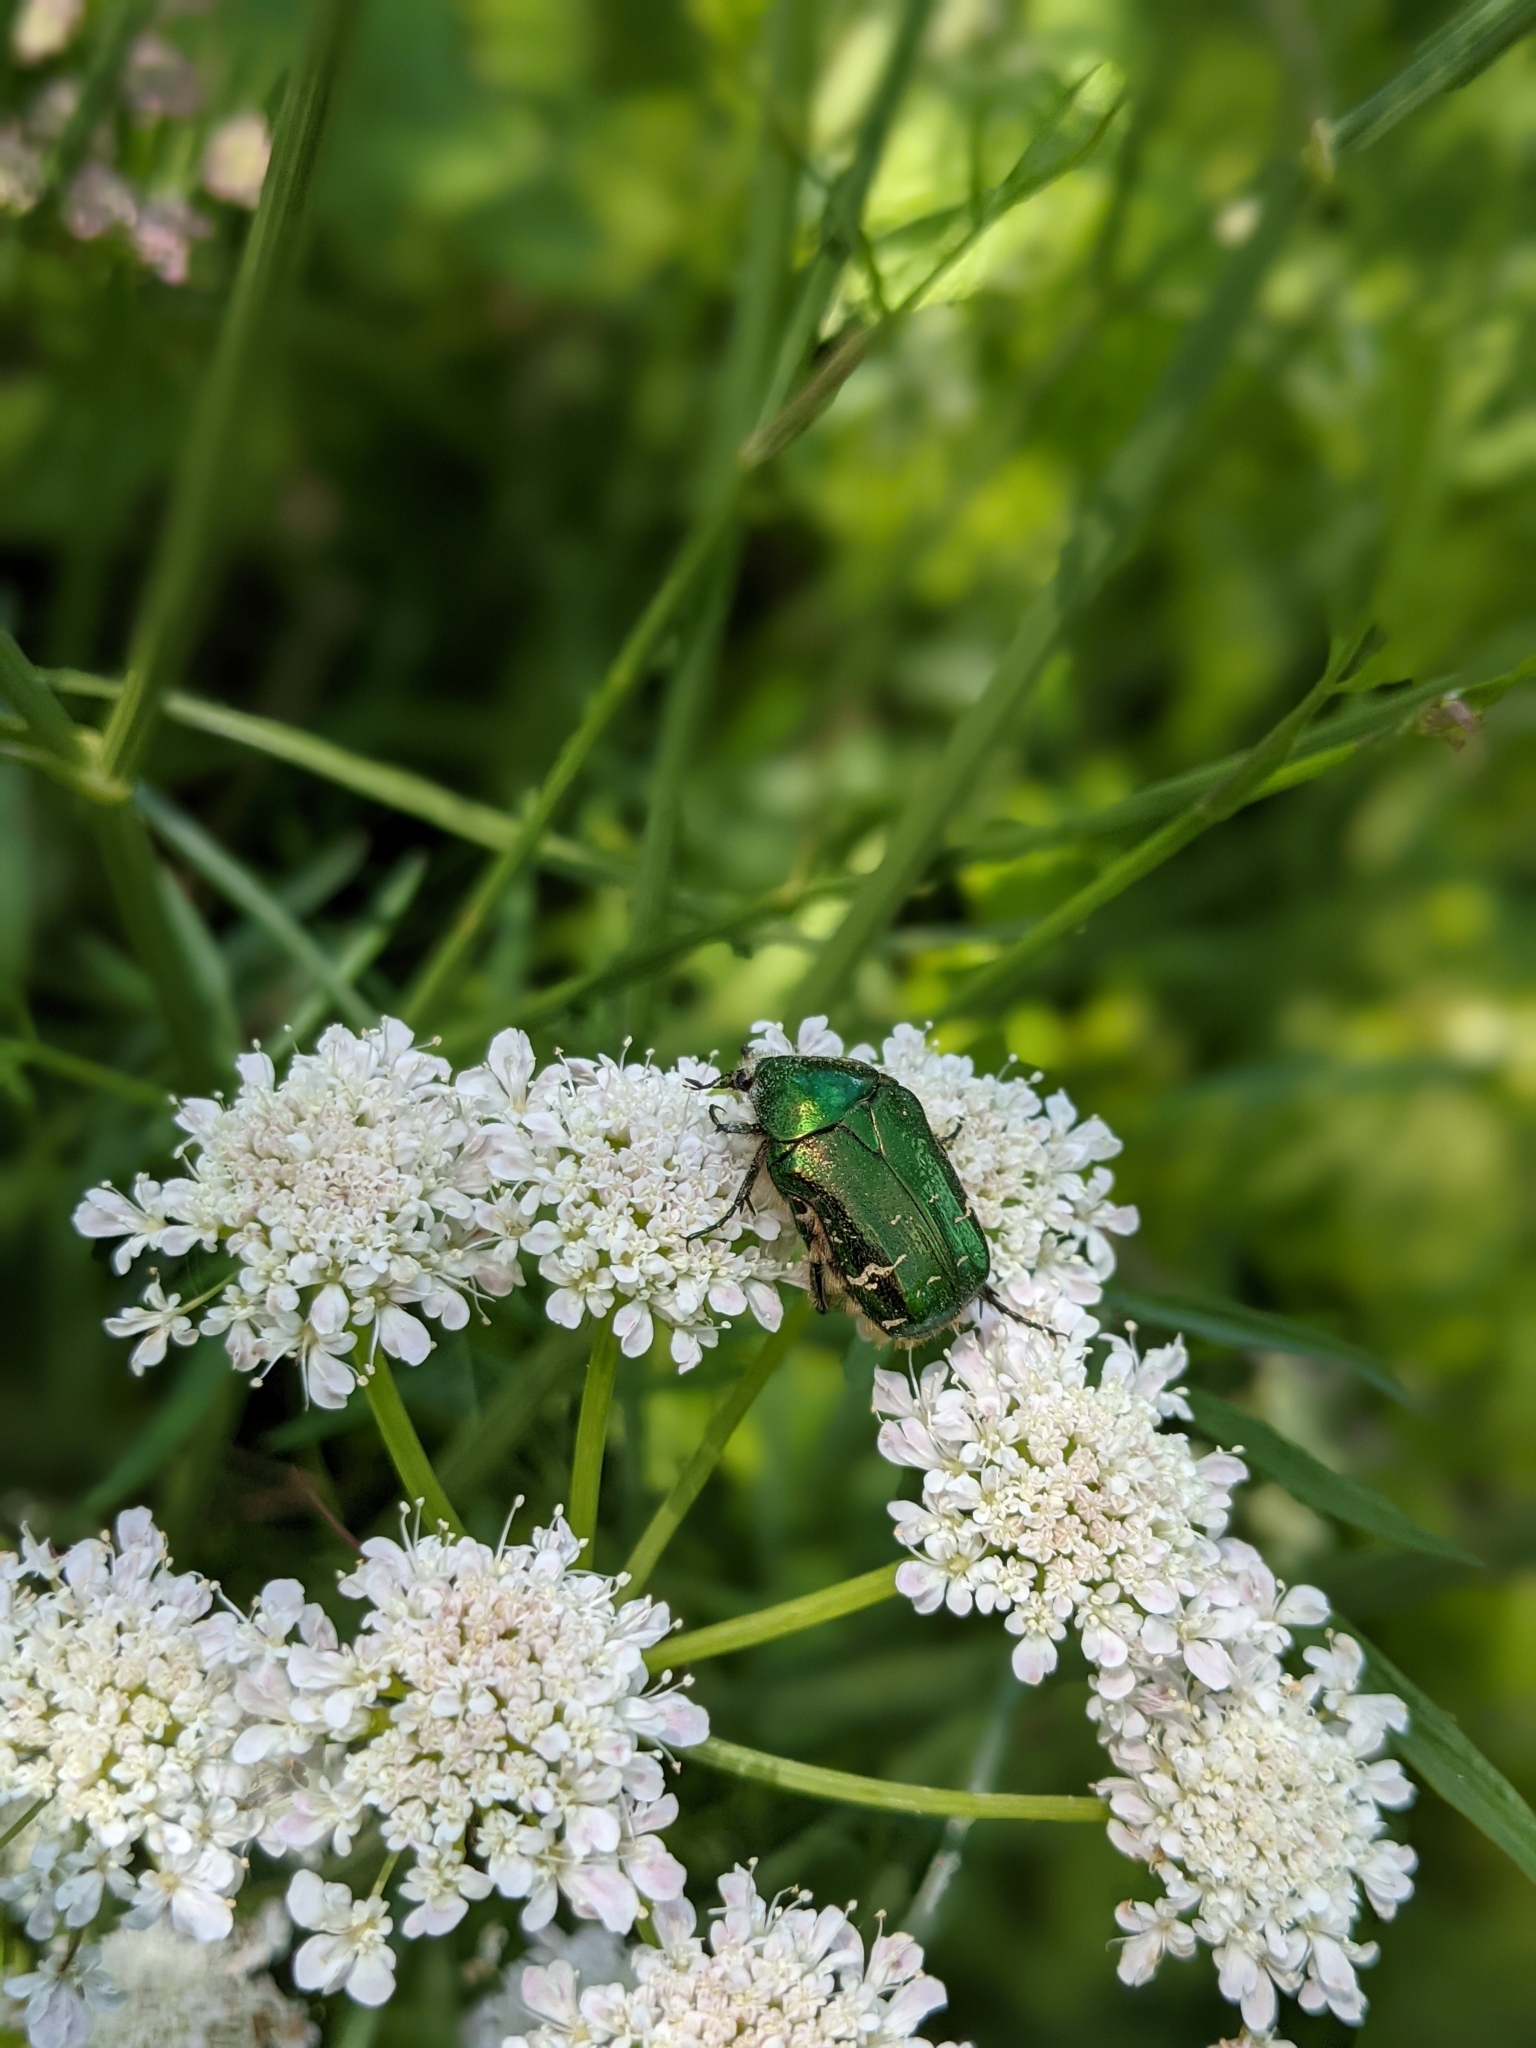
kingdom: Animalia
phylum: Arthropoda
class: Insecta
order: Coleoptera
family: Scarabaeidae
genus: Cetonia
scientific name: Cetonia aurata
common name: Rose chafer
